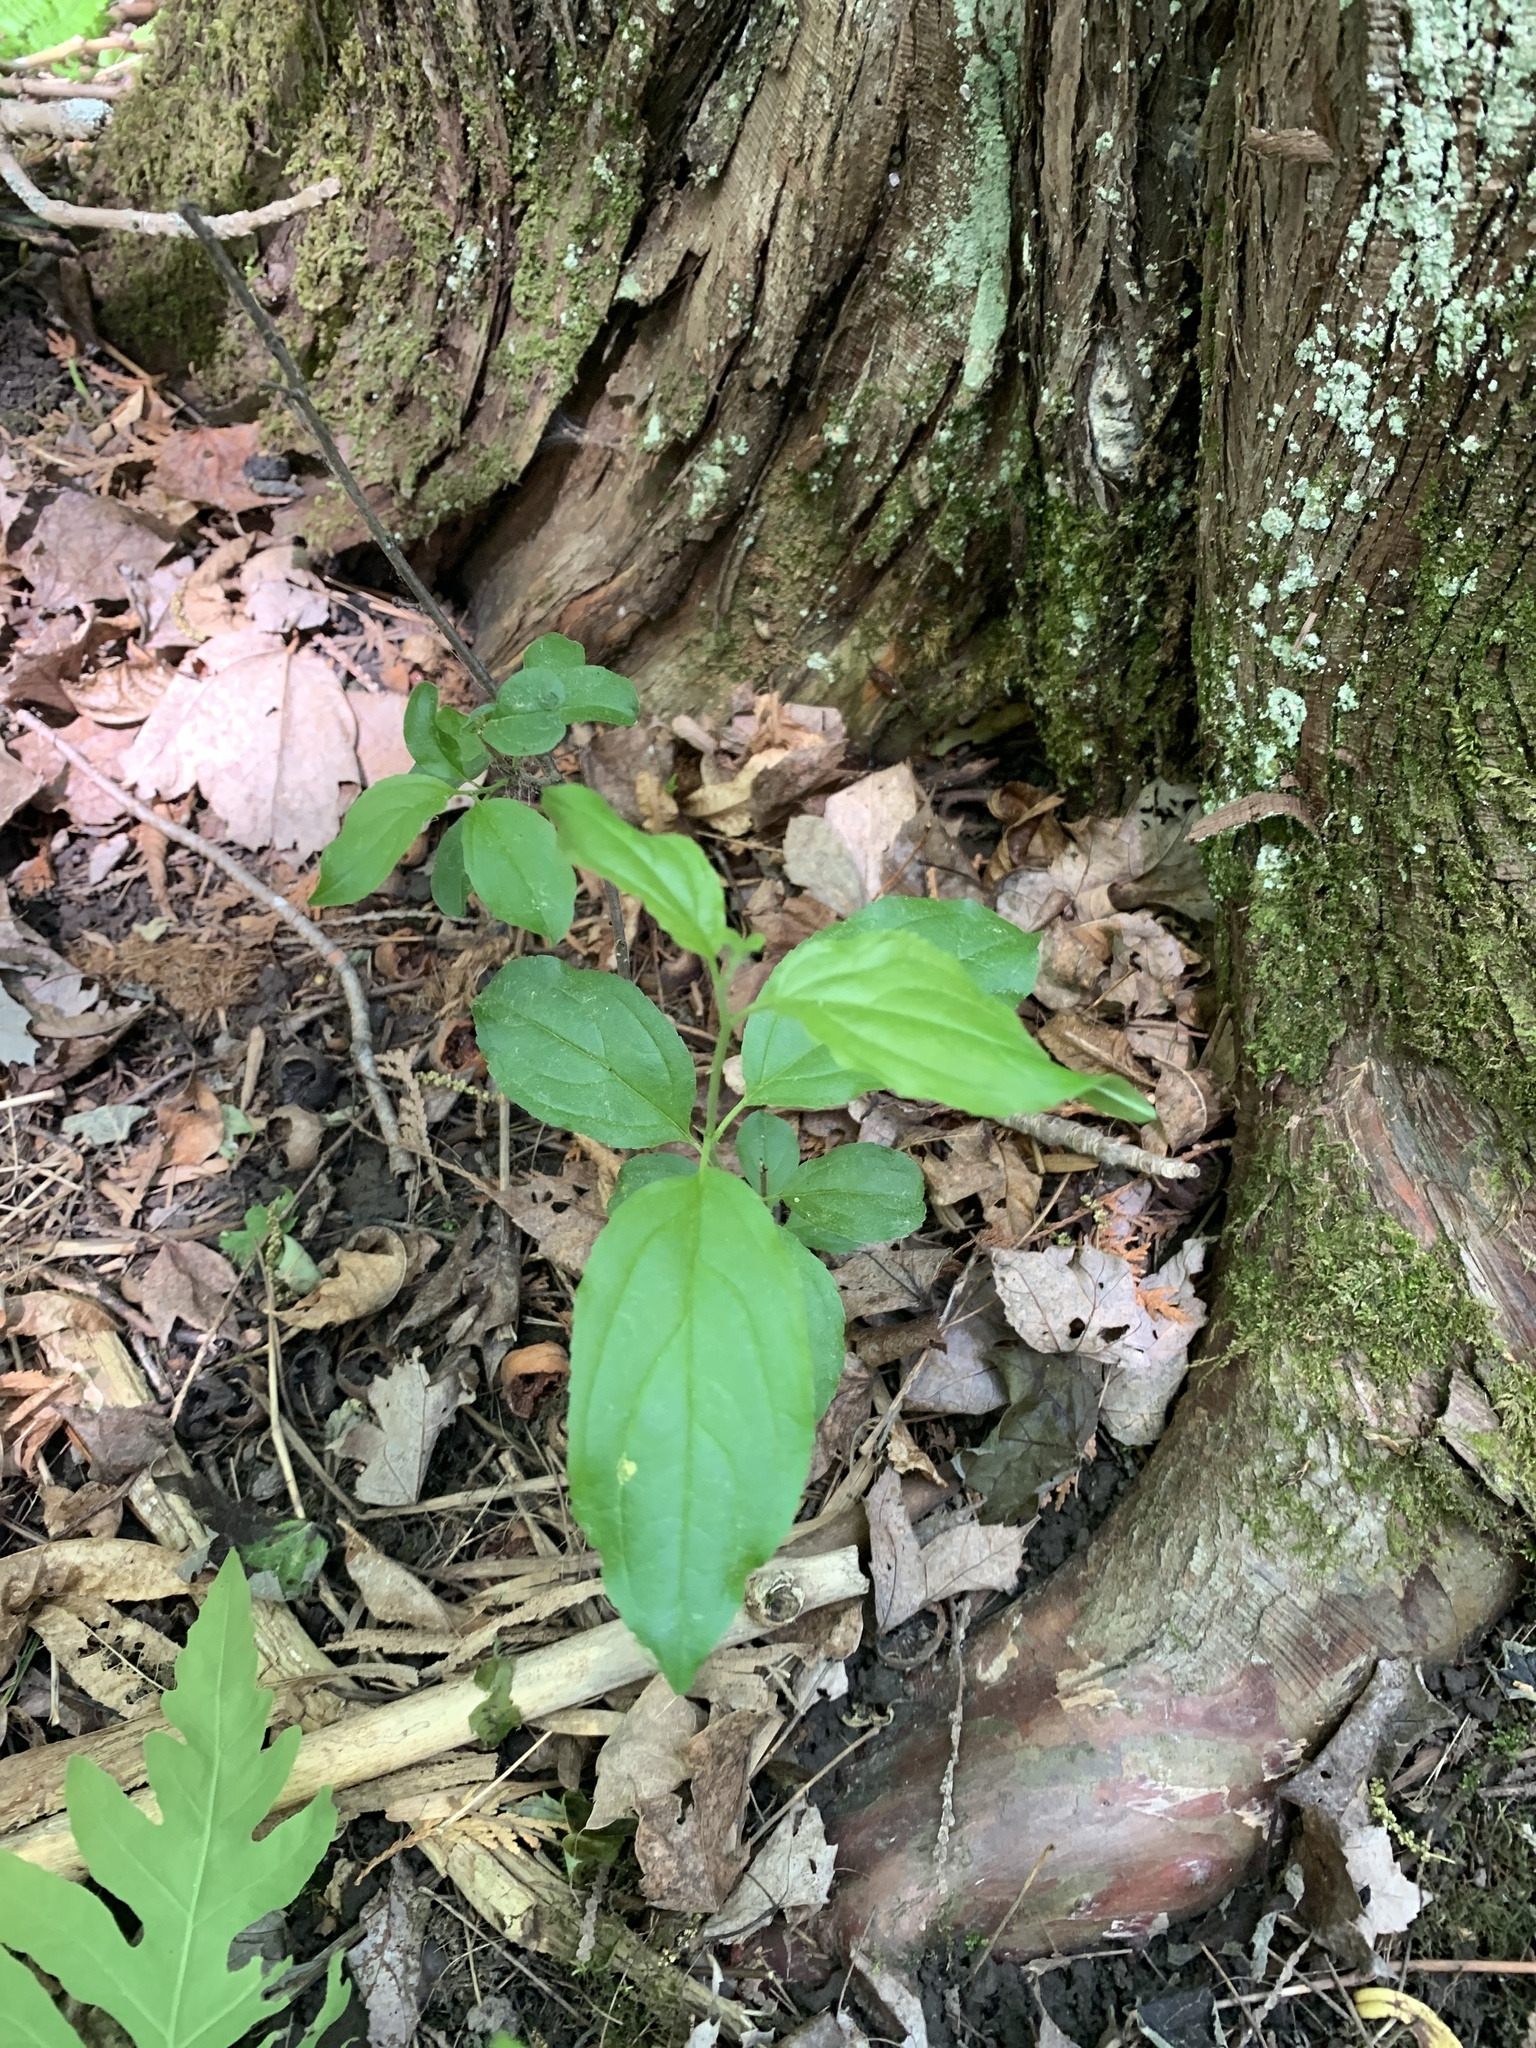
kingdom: Plantae
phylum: Tracheophyta
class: Magnoliopsida
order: Rosales
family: Rhamnaceae
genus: Rhamnus
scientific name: Rhamnus cathartica
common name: Common buckthorn
